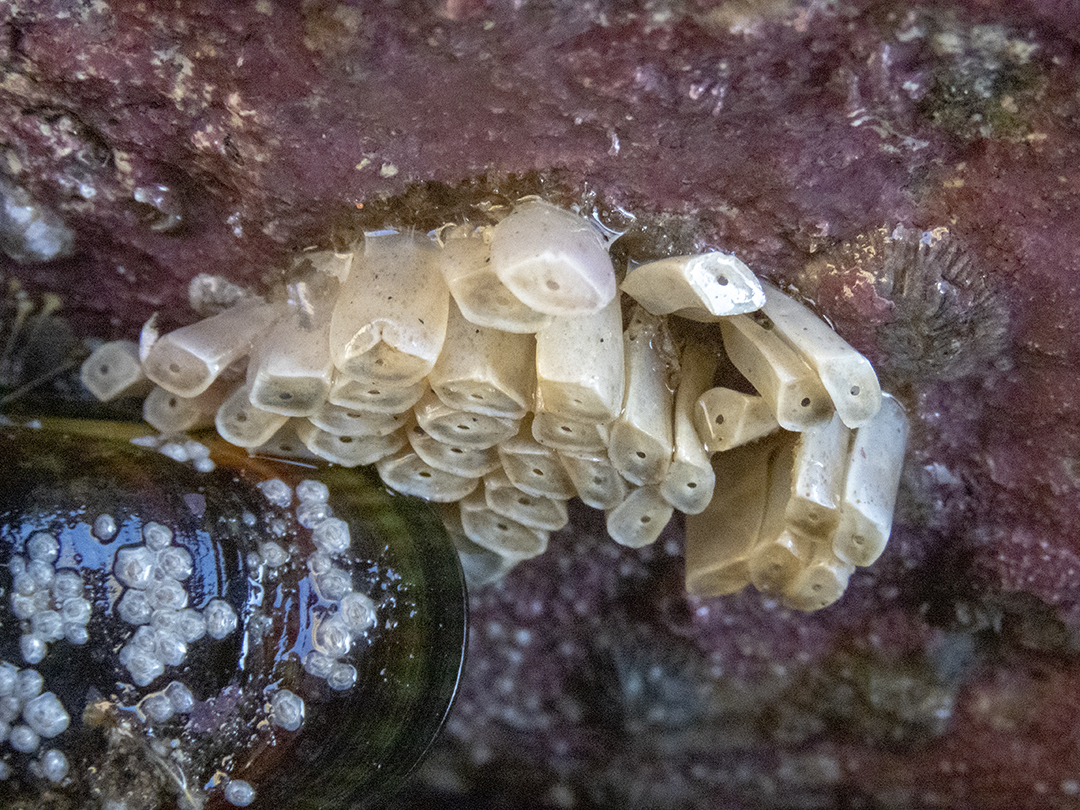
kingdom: Animalia
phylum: Mollusca
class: Gastropoda
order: Neogastropoda
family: Muricidae
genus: Dicathais
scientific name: Dicathais orbita
